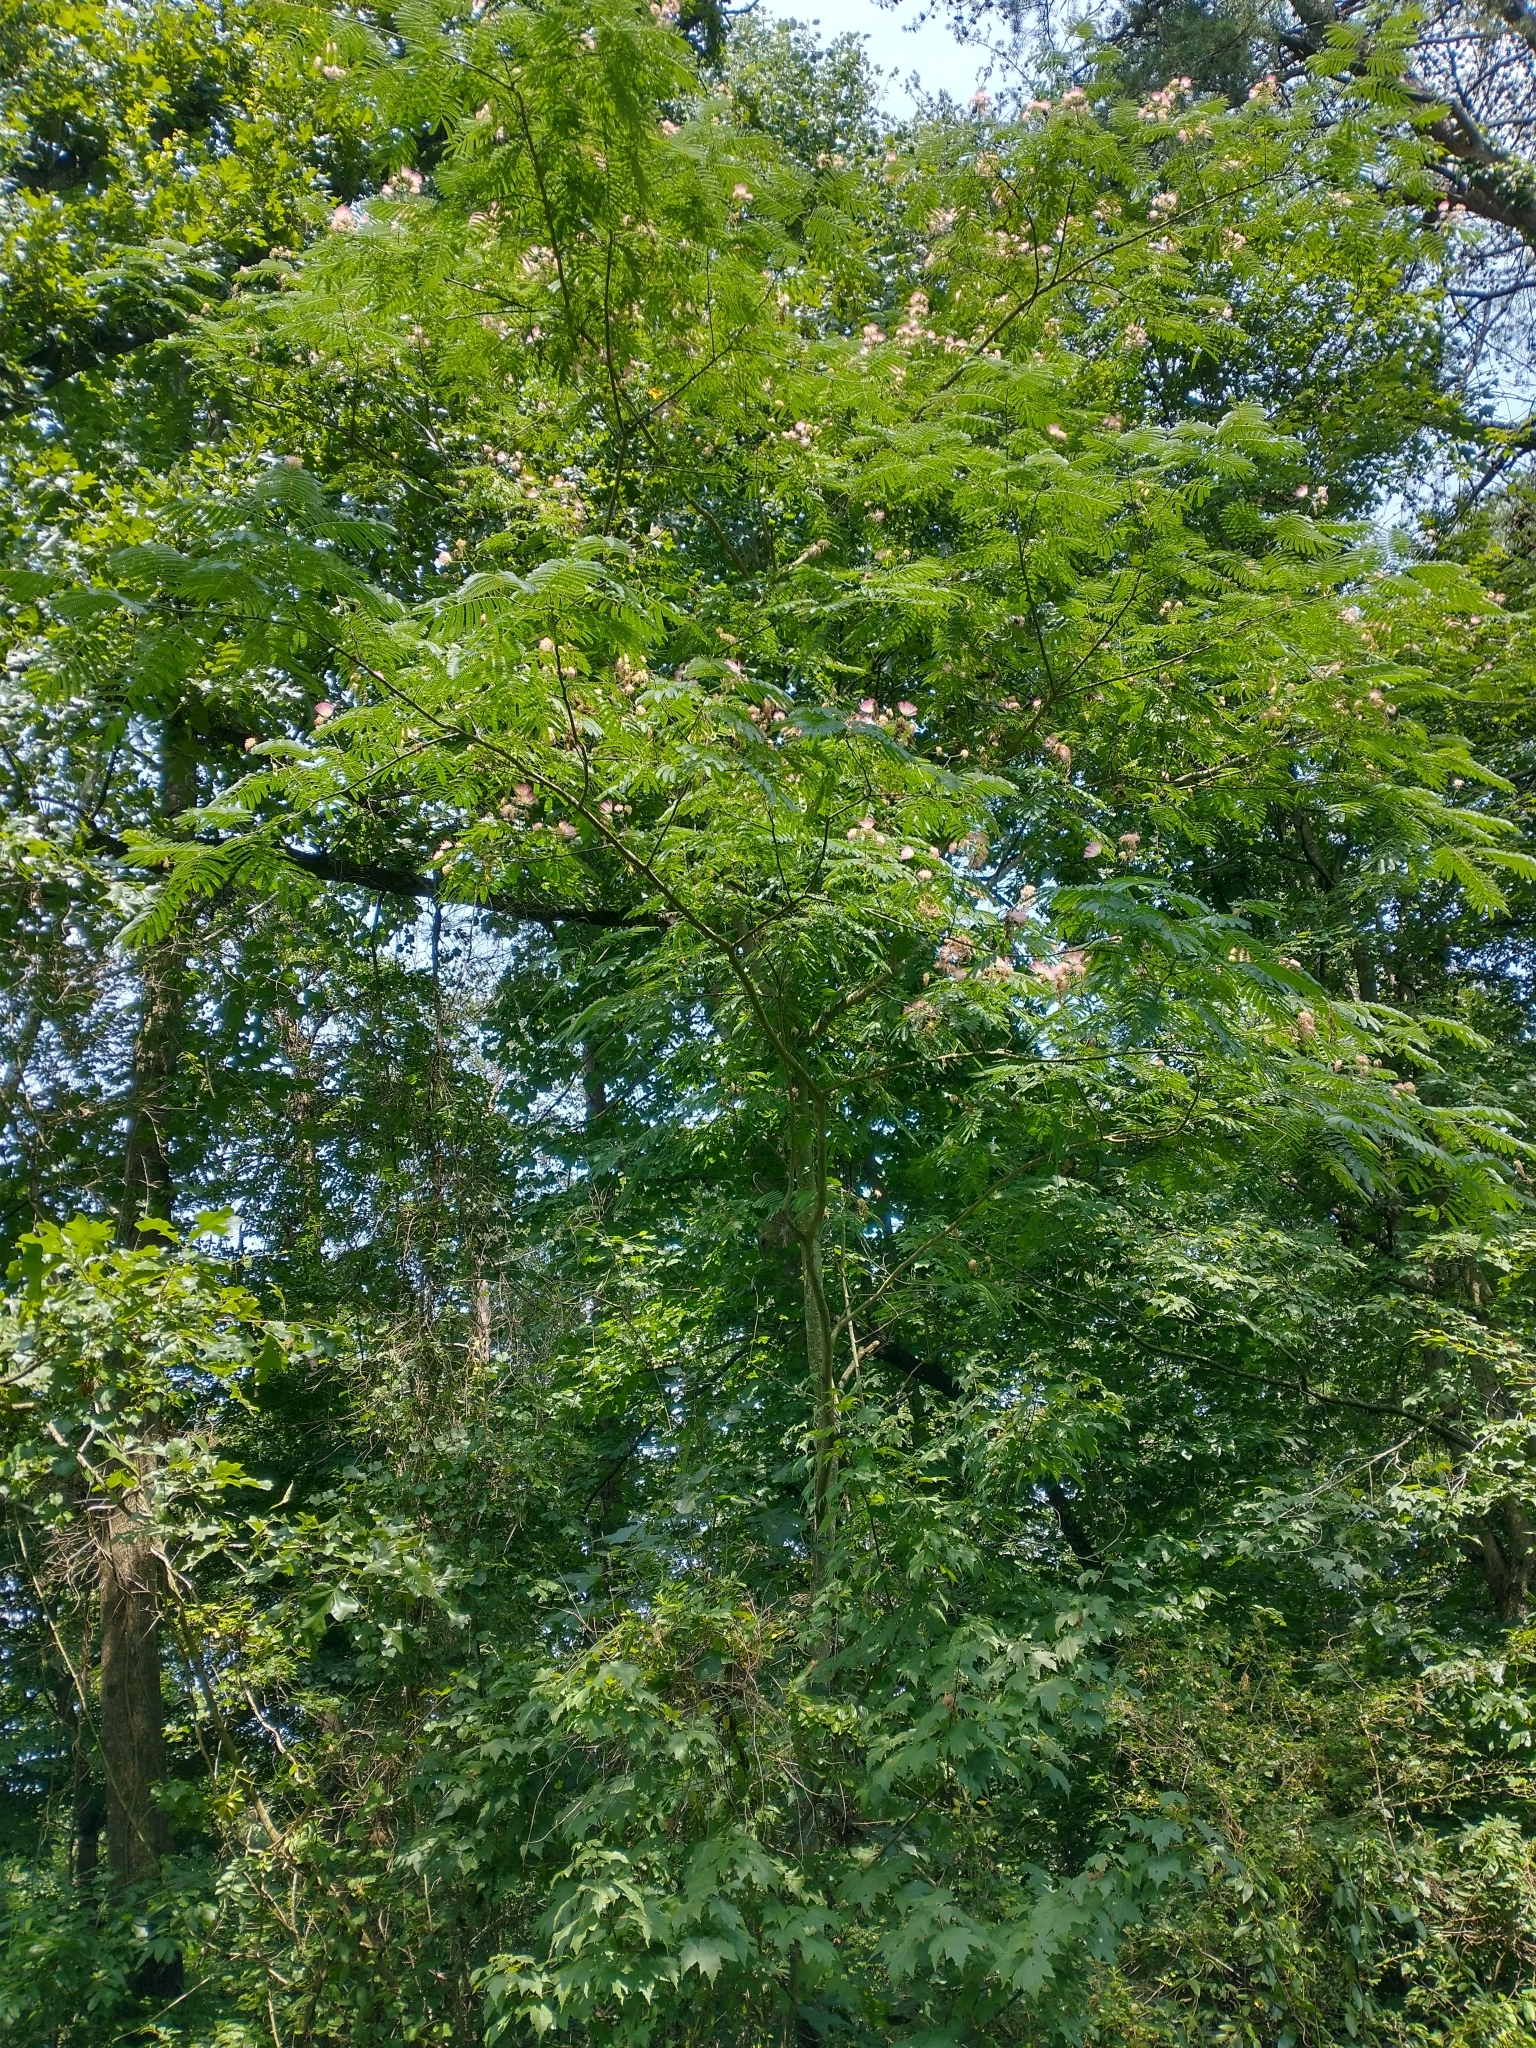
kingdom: Plantae
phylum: Tracheophyta
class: Magnoliopsida
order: Fabales
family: Fabaceae
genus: Albizia
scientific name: Albizia julibrissin
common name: Silktree
